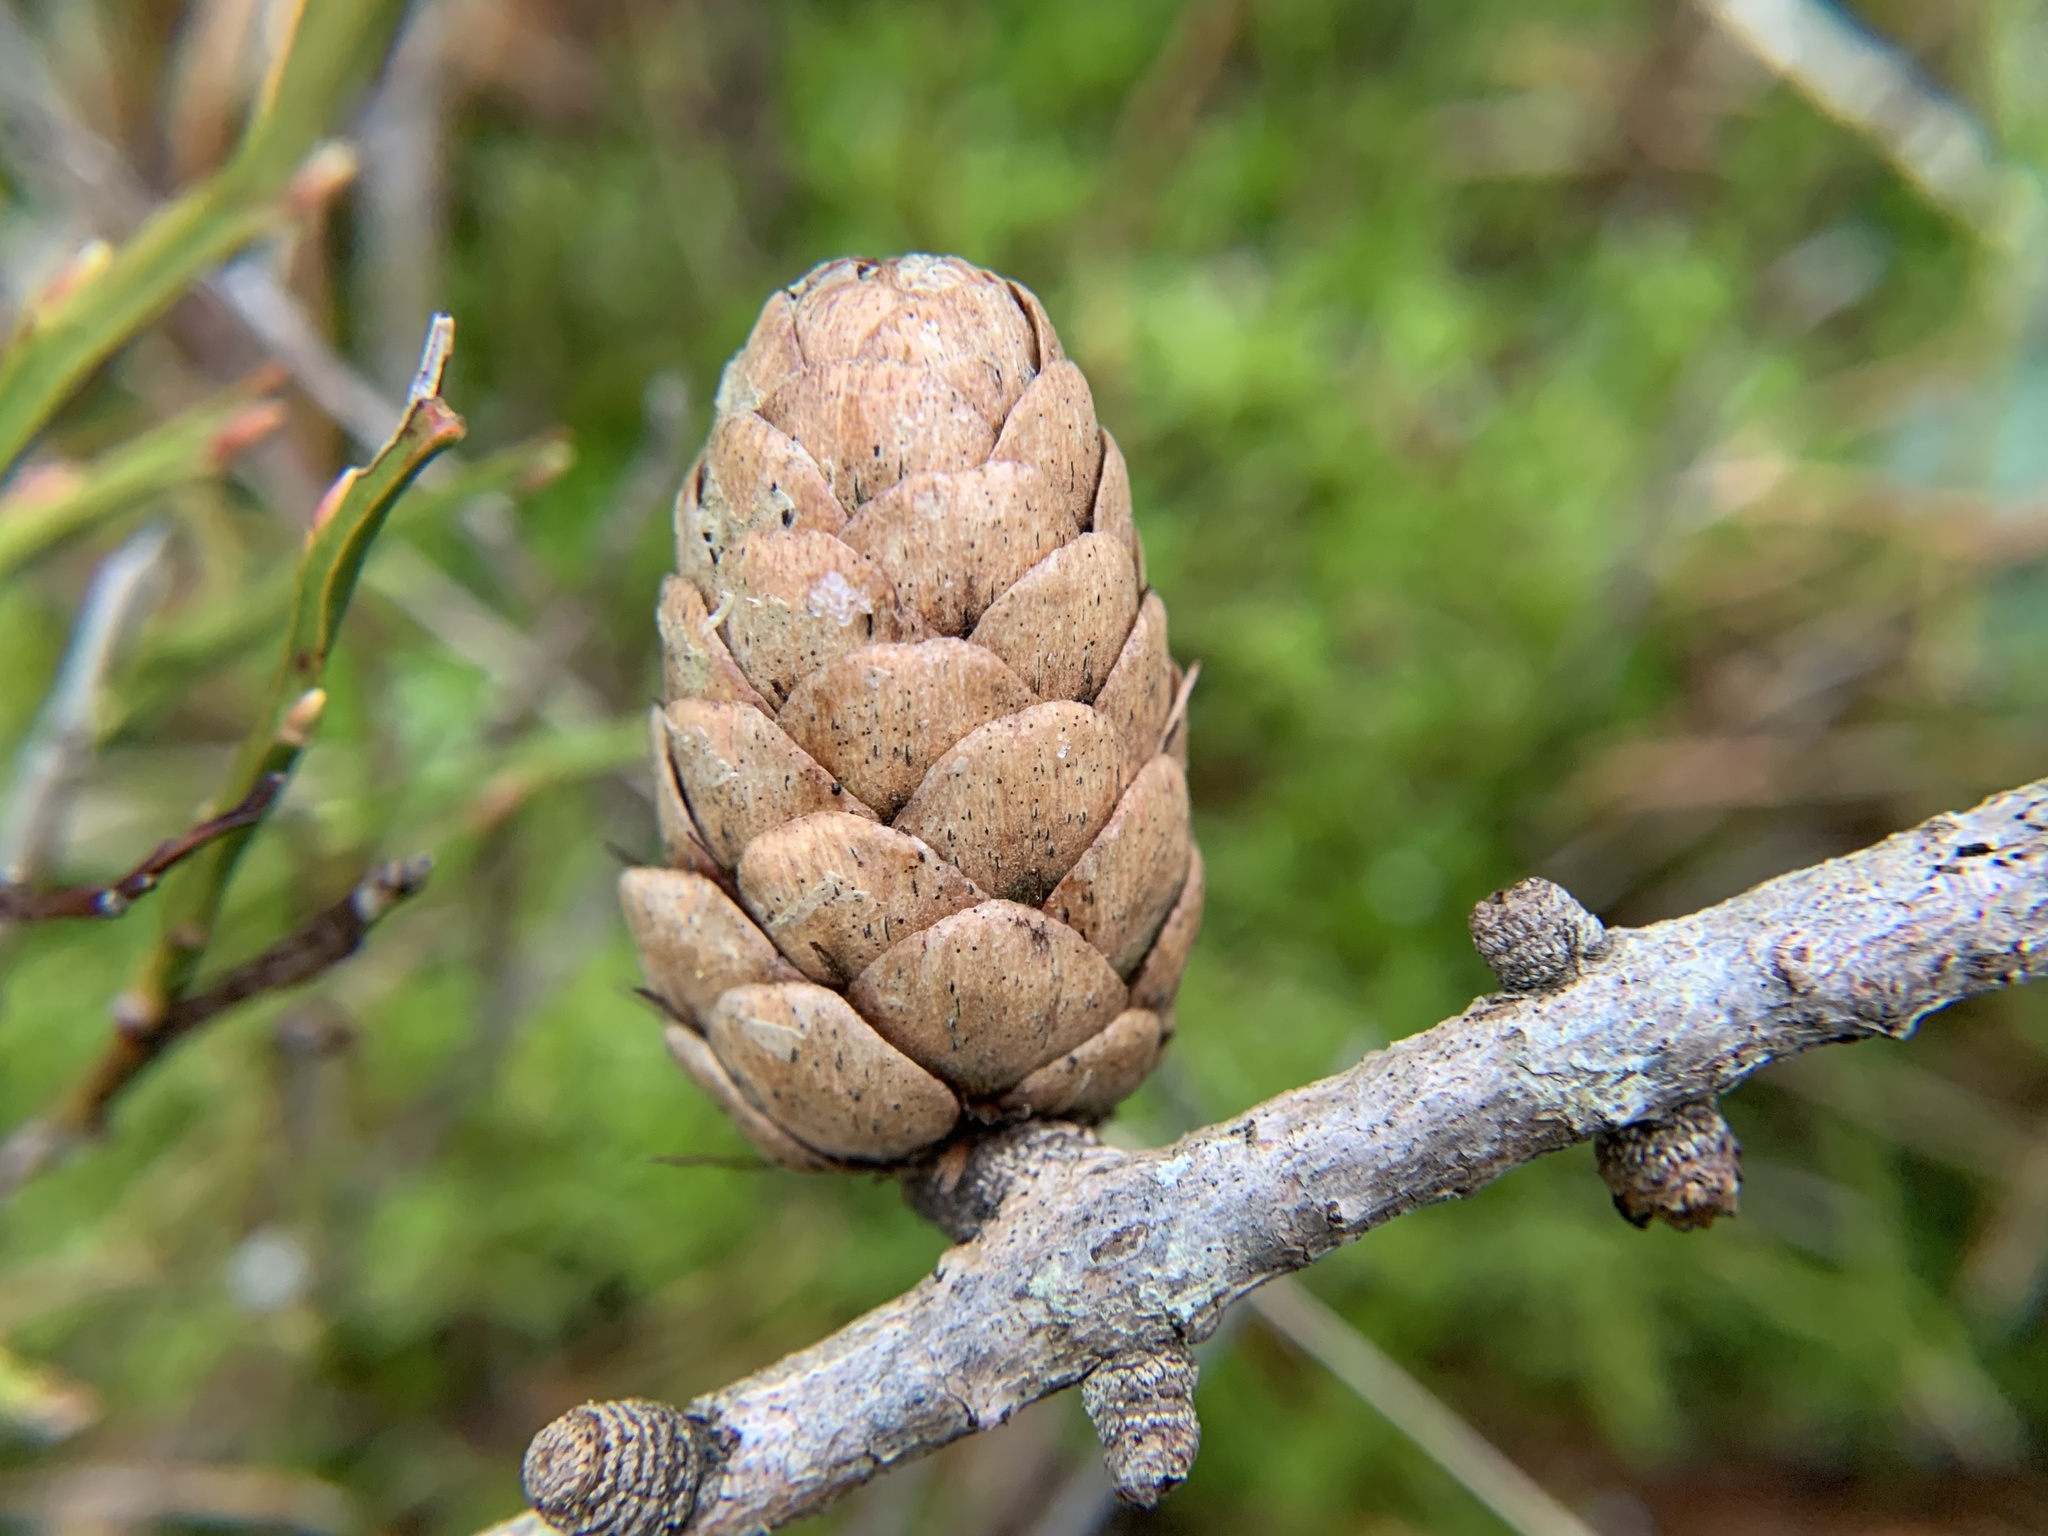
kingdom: Plantae
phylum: Tracheophyta
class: Pinopsida
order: Pinales
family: Pinaceae
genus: Larix
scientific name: Larix decidua
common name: European larch
